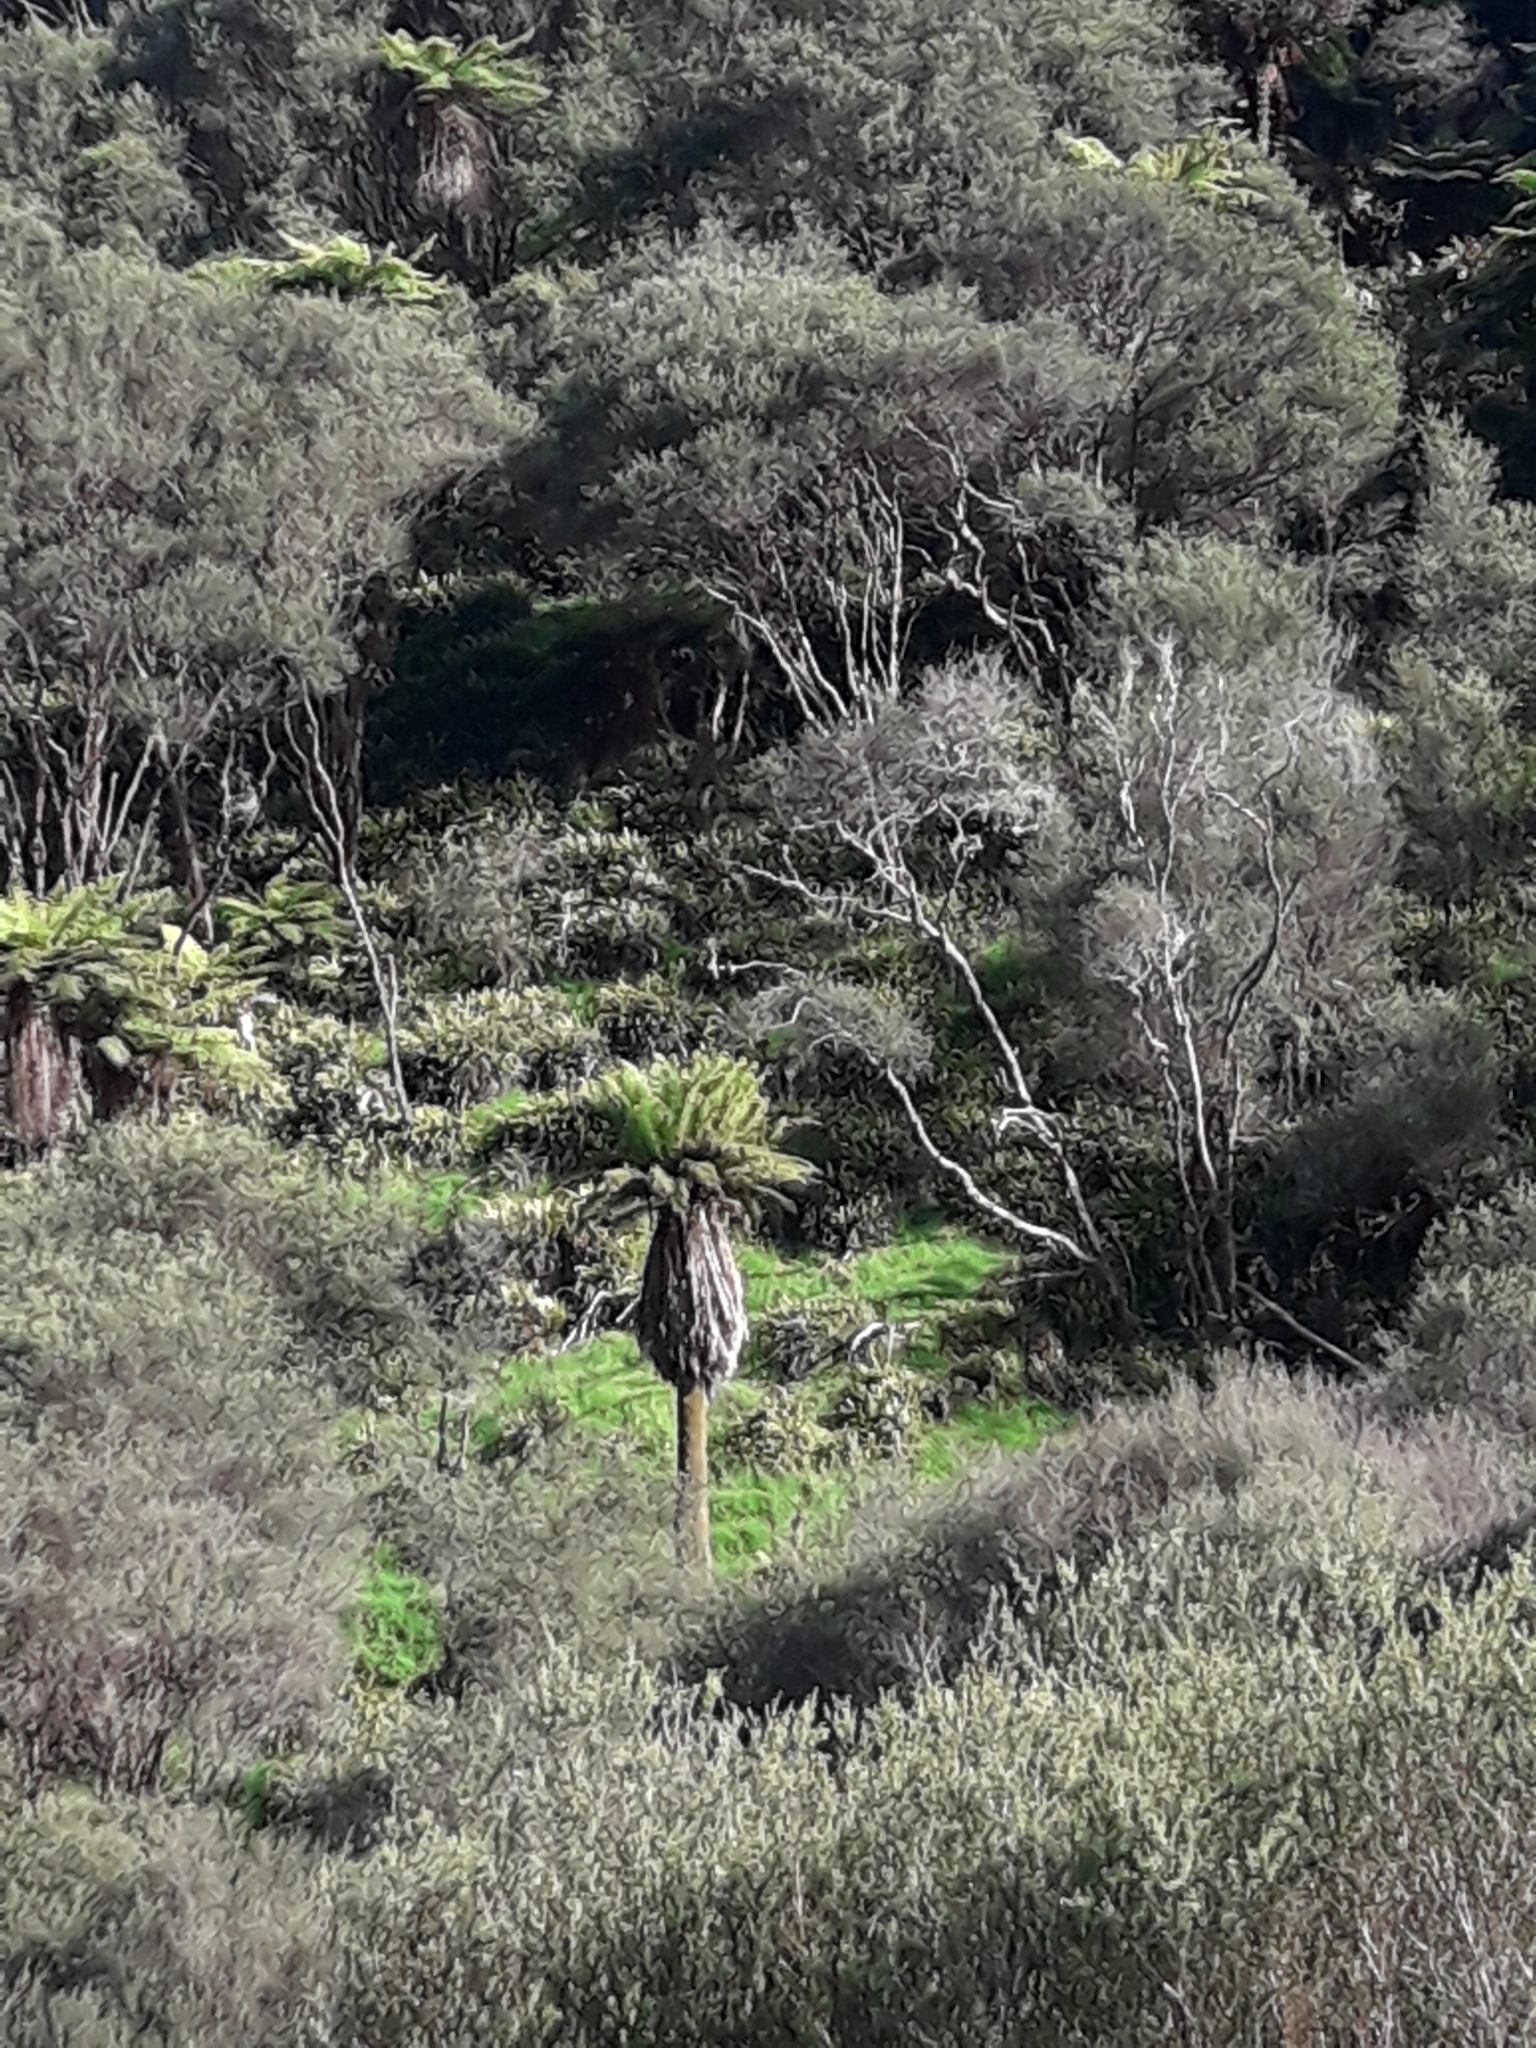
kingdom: Plantae
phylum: Tracheophyta
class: Polypodiopsida
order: Cyatheales
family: Dicksoniaceae
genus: Dicksonia
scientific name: Dicksonia fibrosa
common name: Golden tree fern
